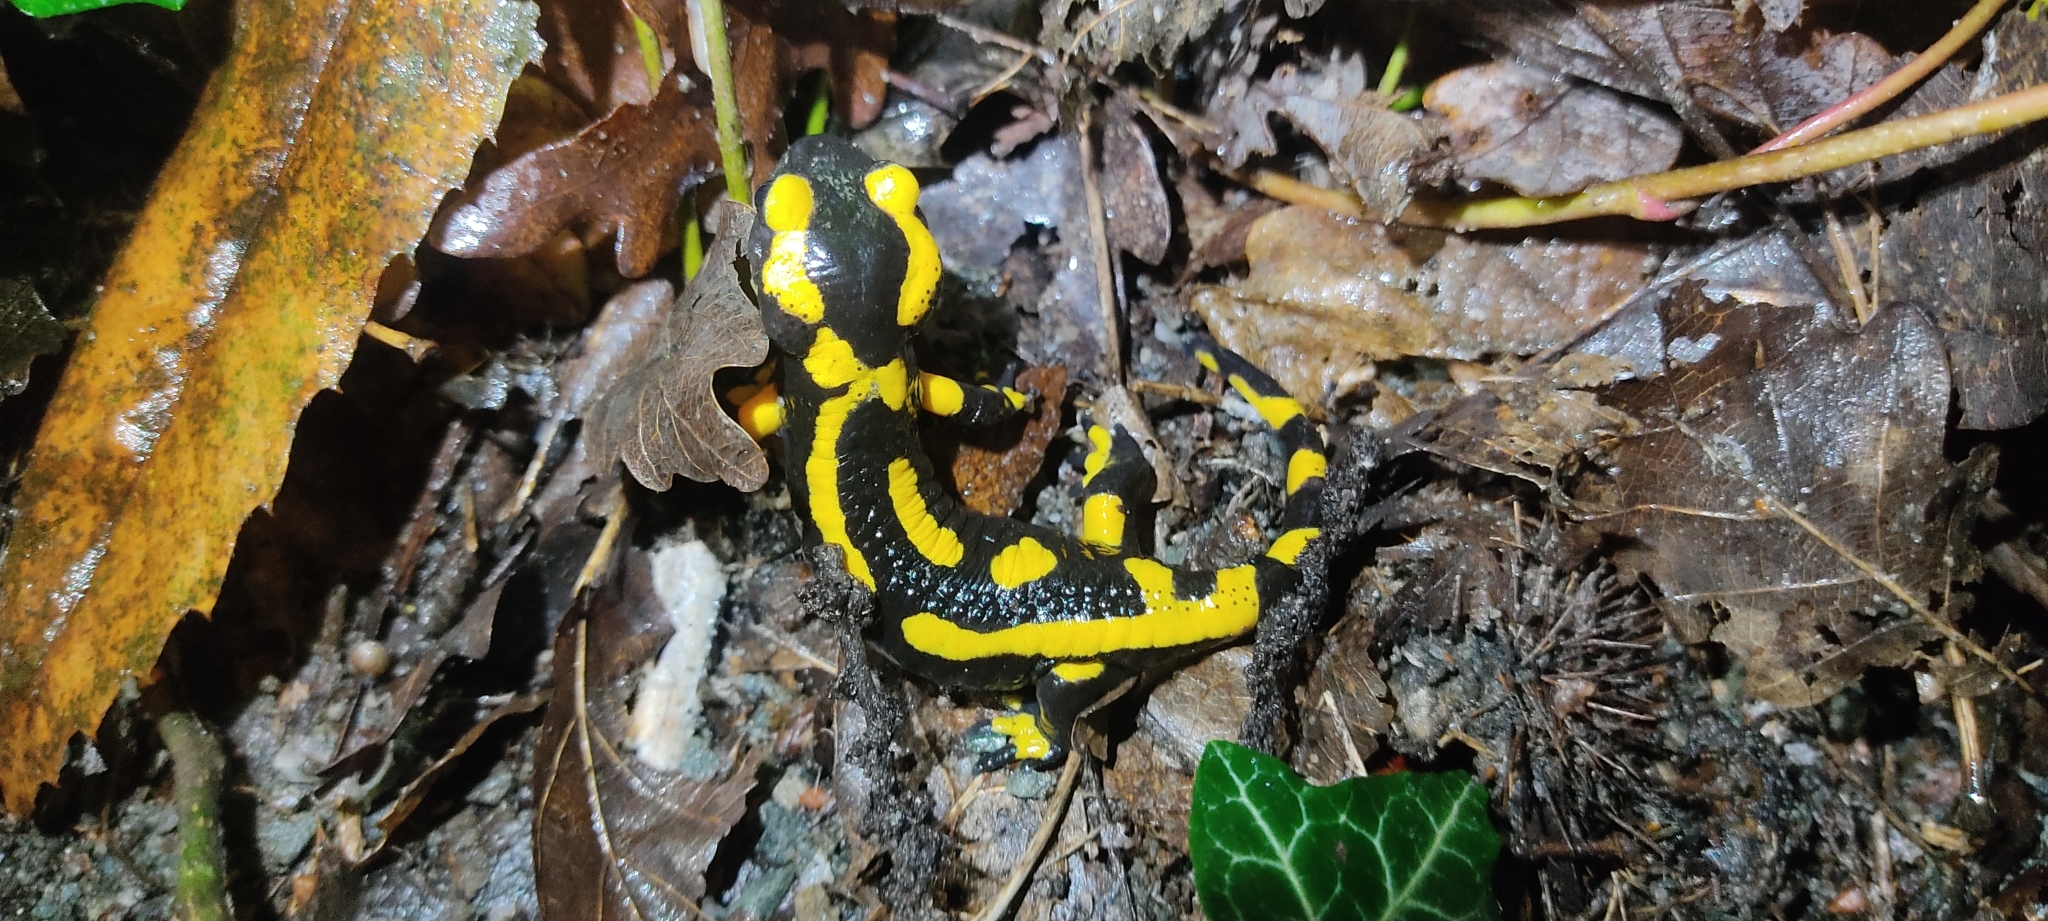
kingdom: Animalia
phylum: Chordata
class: Amphibia
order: Caudata
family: Salamandridae
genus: Salamandra
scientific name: Salamandra salamandra
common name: Fire salamander
